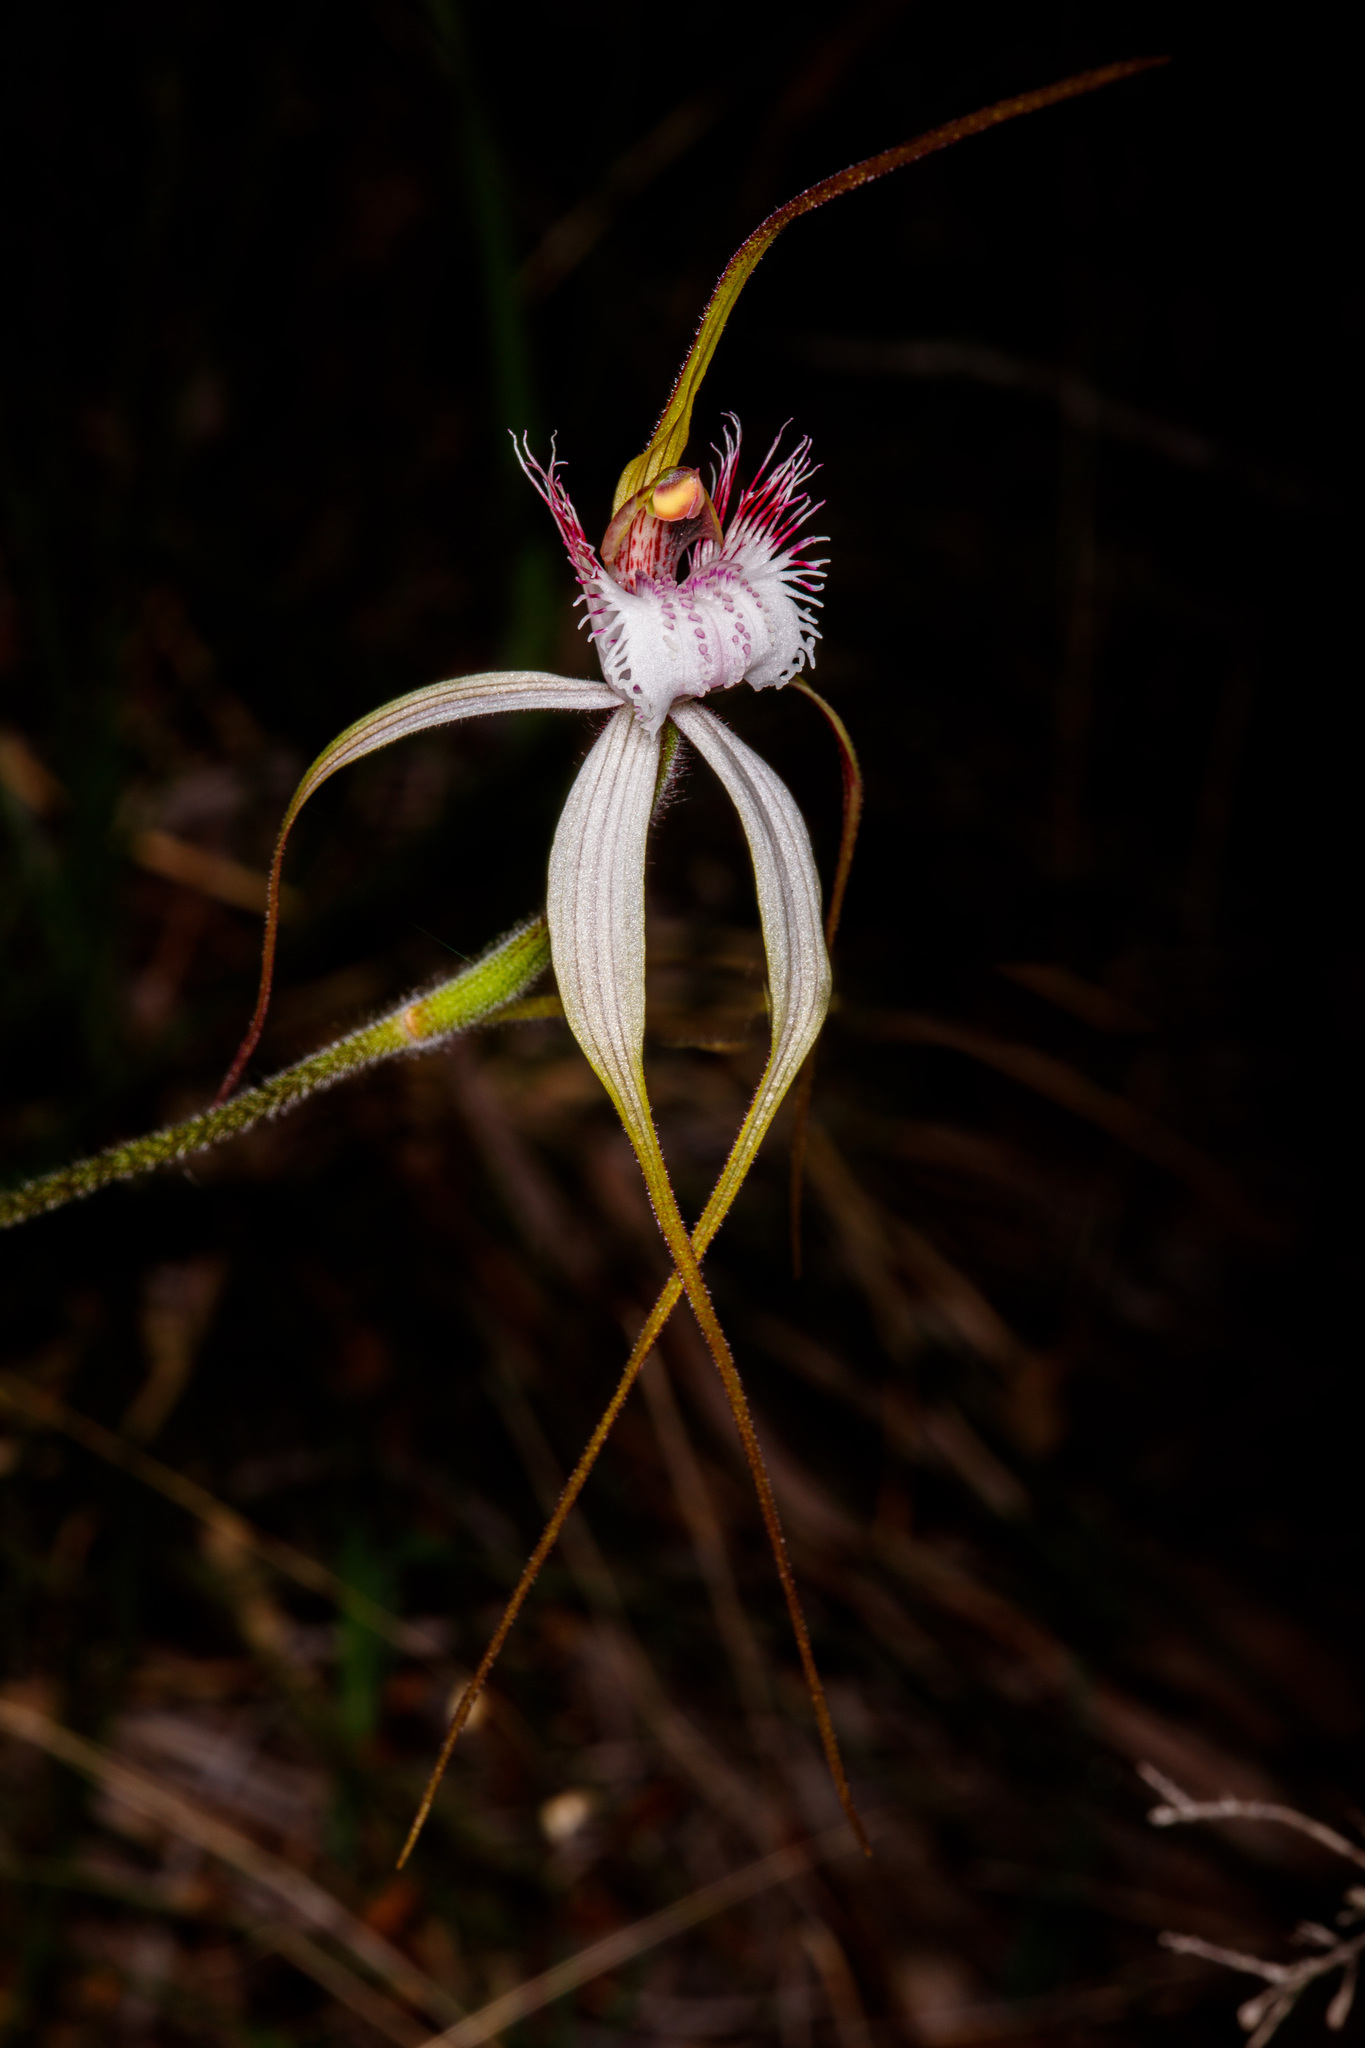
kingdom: Plantae
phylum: Tracheophyta
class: Liliopsida
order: Asparagales
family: Orchidaceae
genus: Caladenia
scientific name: Caladenia speciosa
